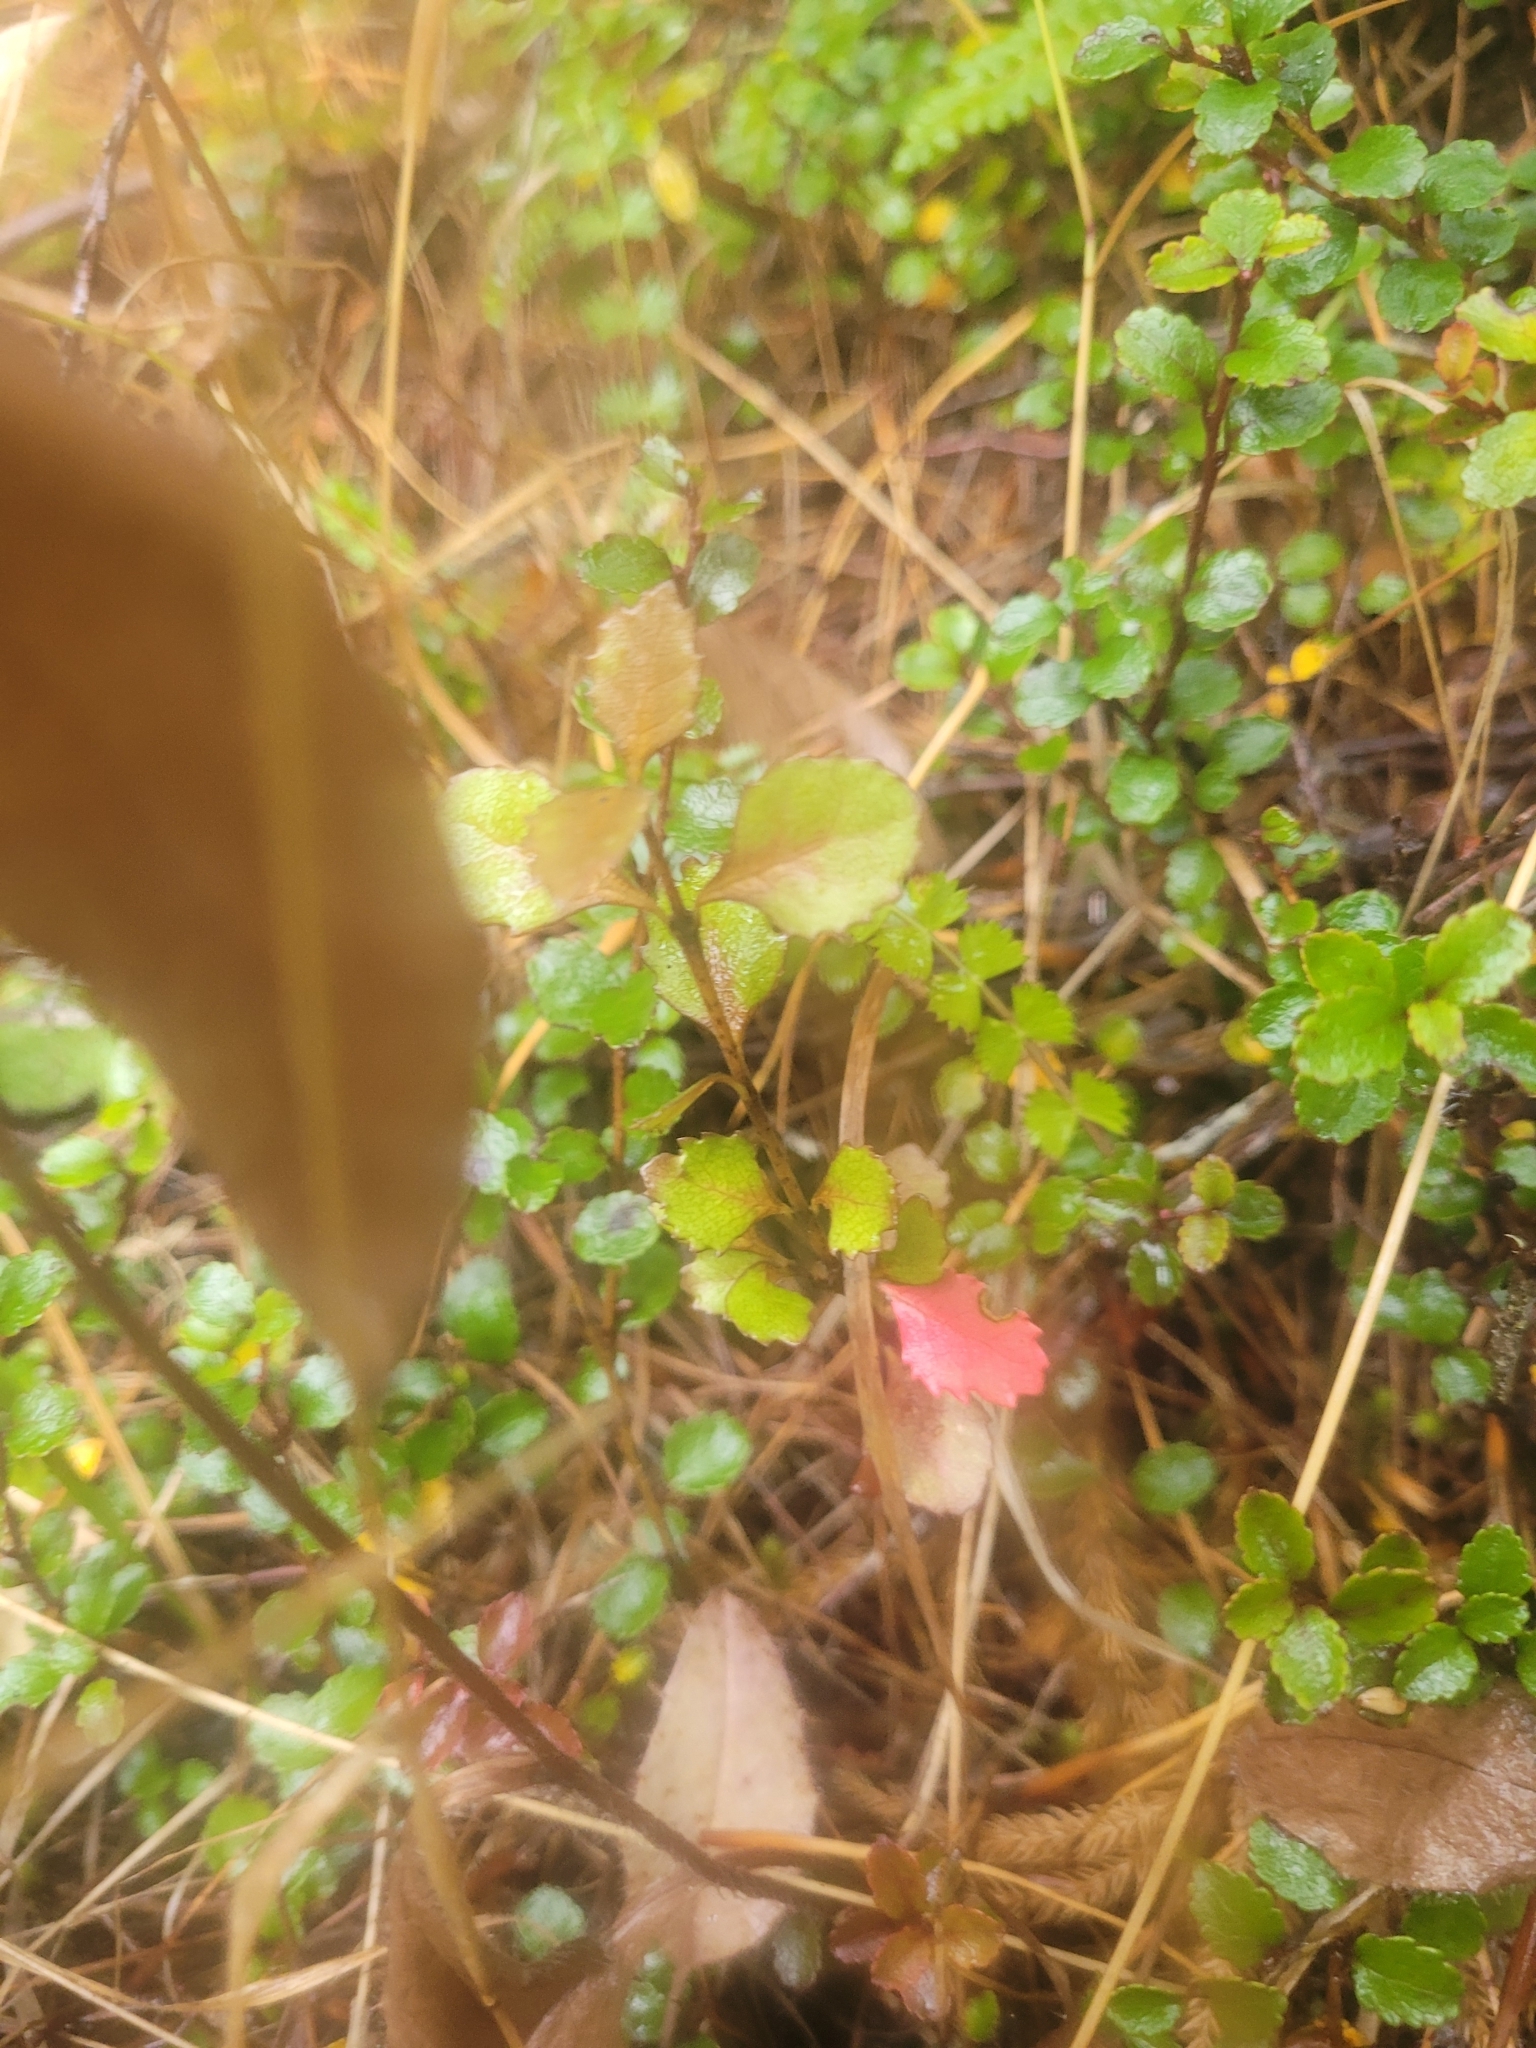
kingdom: Plantae
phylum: Tracheophyta
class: Magnoliopsida
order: Ericales
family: Ericaceae
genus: Gaultheria
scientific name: Gaultheria antipoda
